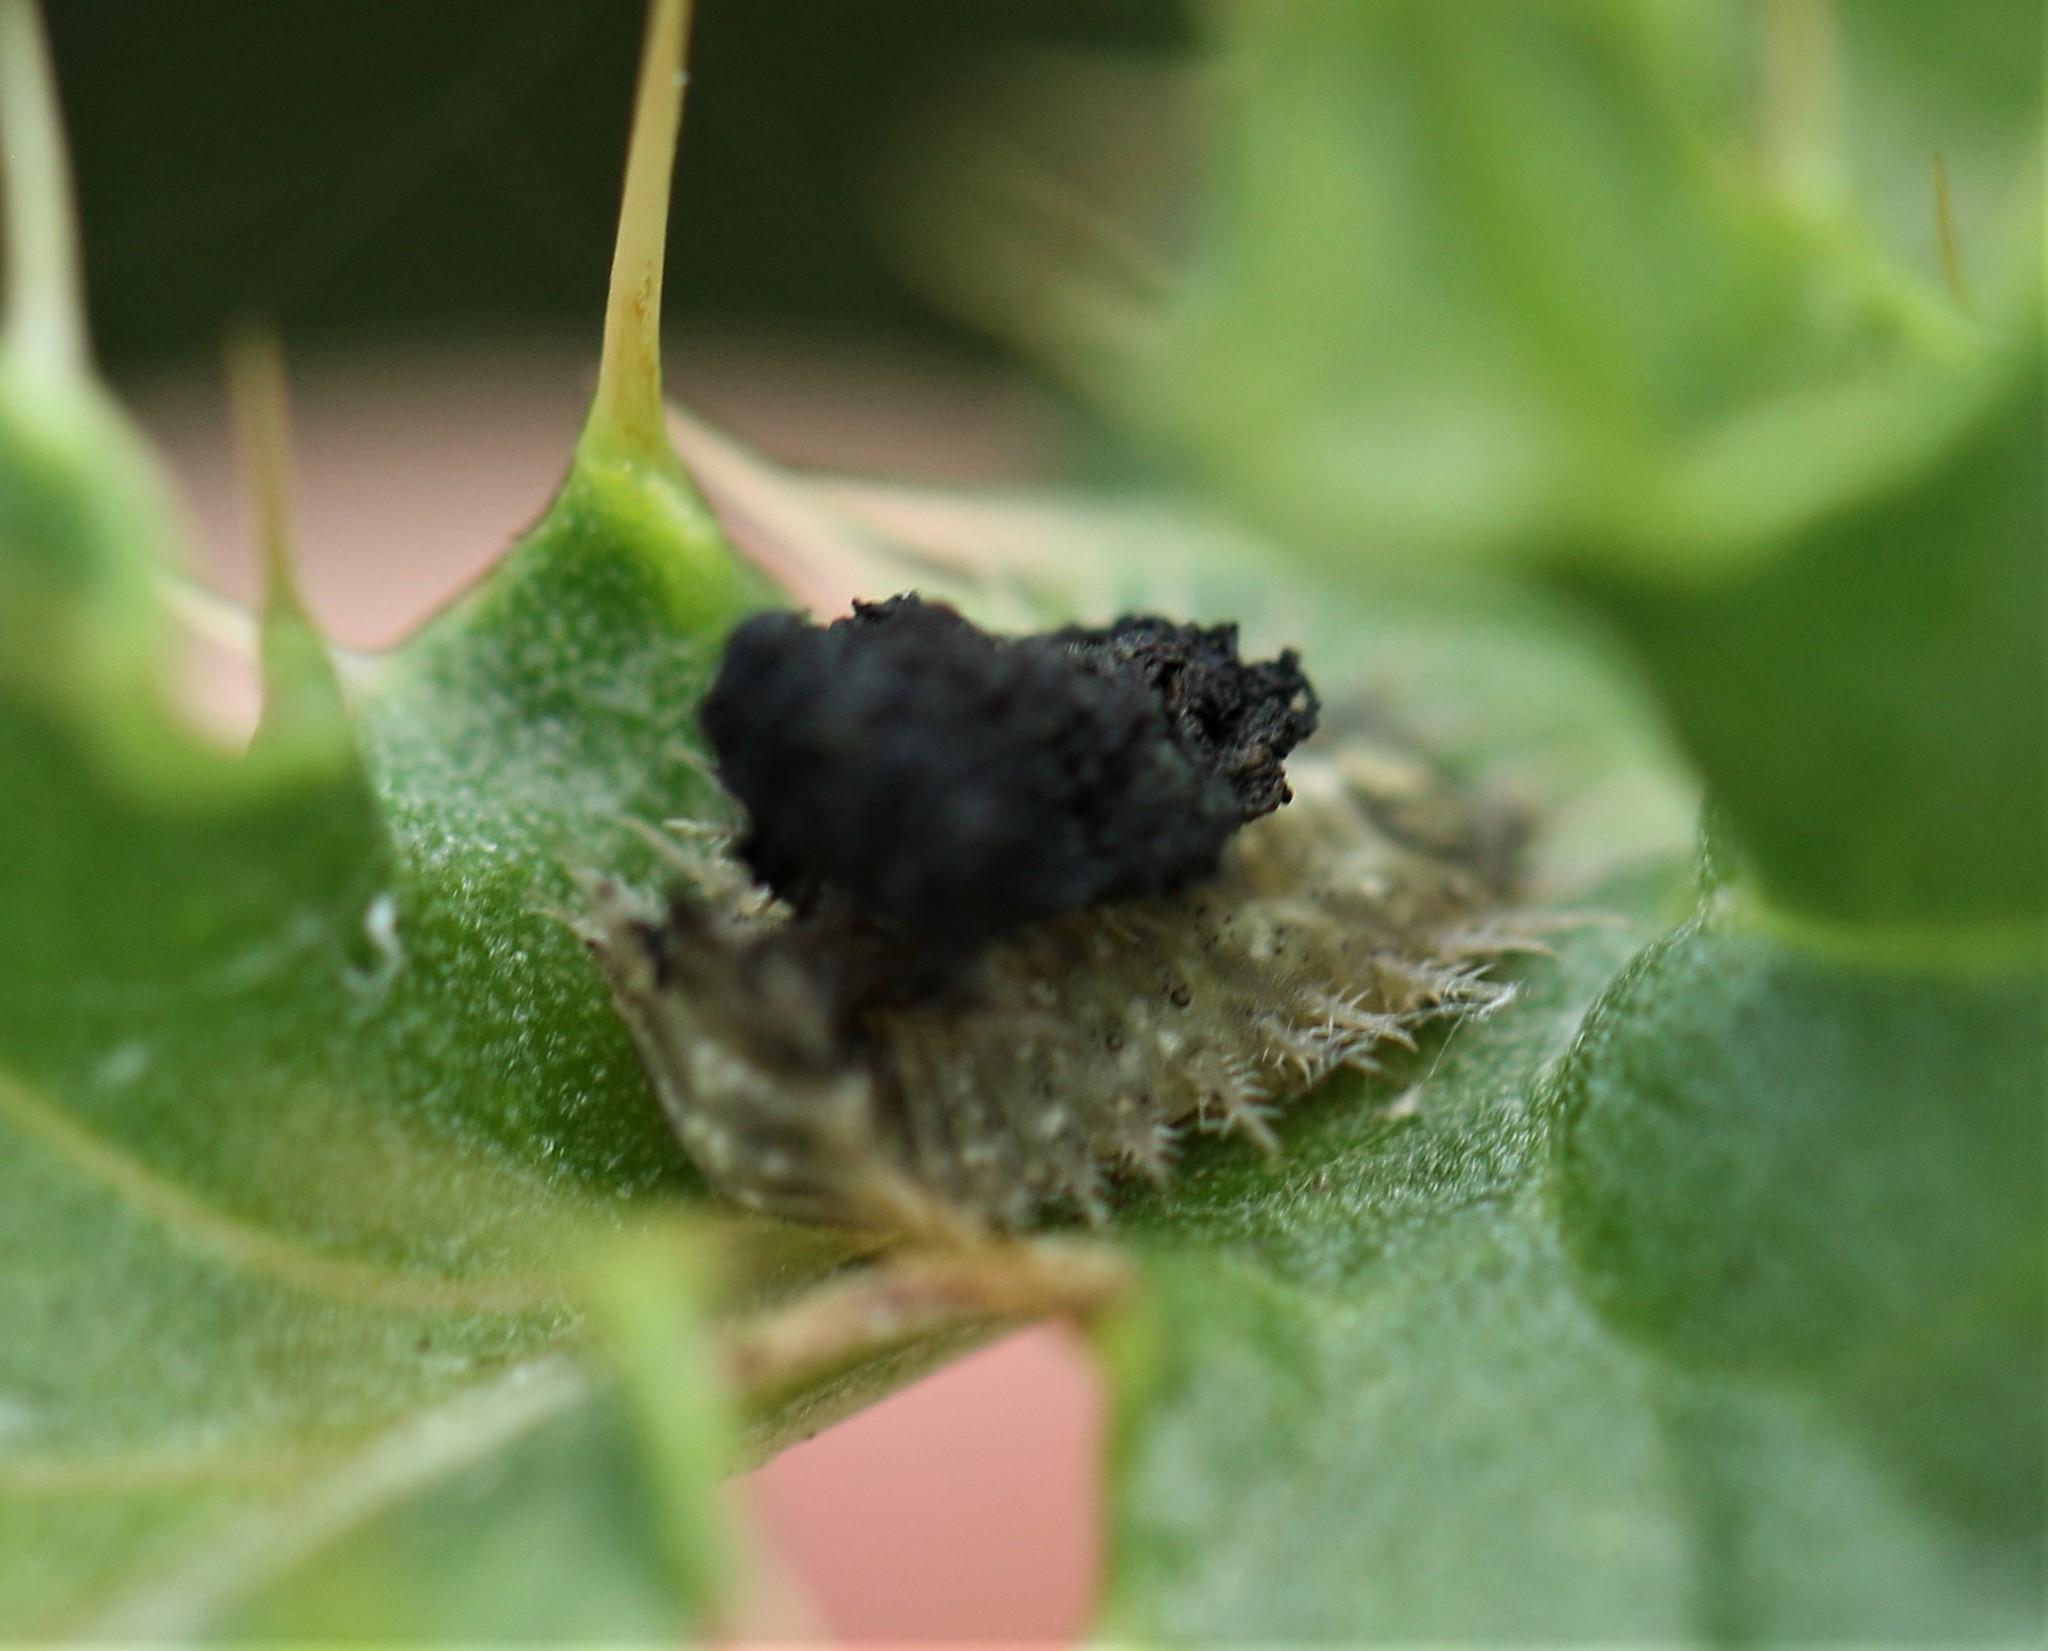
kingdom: Animalia
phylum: Arthropoda
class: Insecta
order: Coleoptera
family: Chrysomelidae
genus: Cassida
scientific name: Cassida rubiginosa
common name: Thistle tortoise beetle
